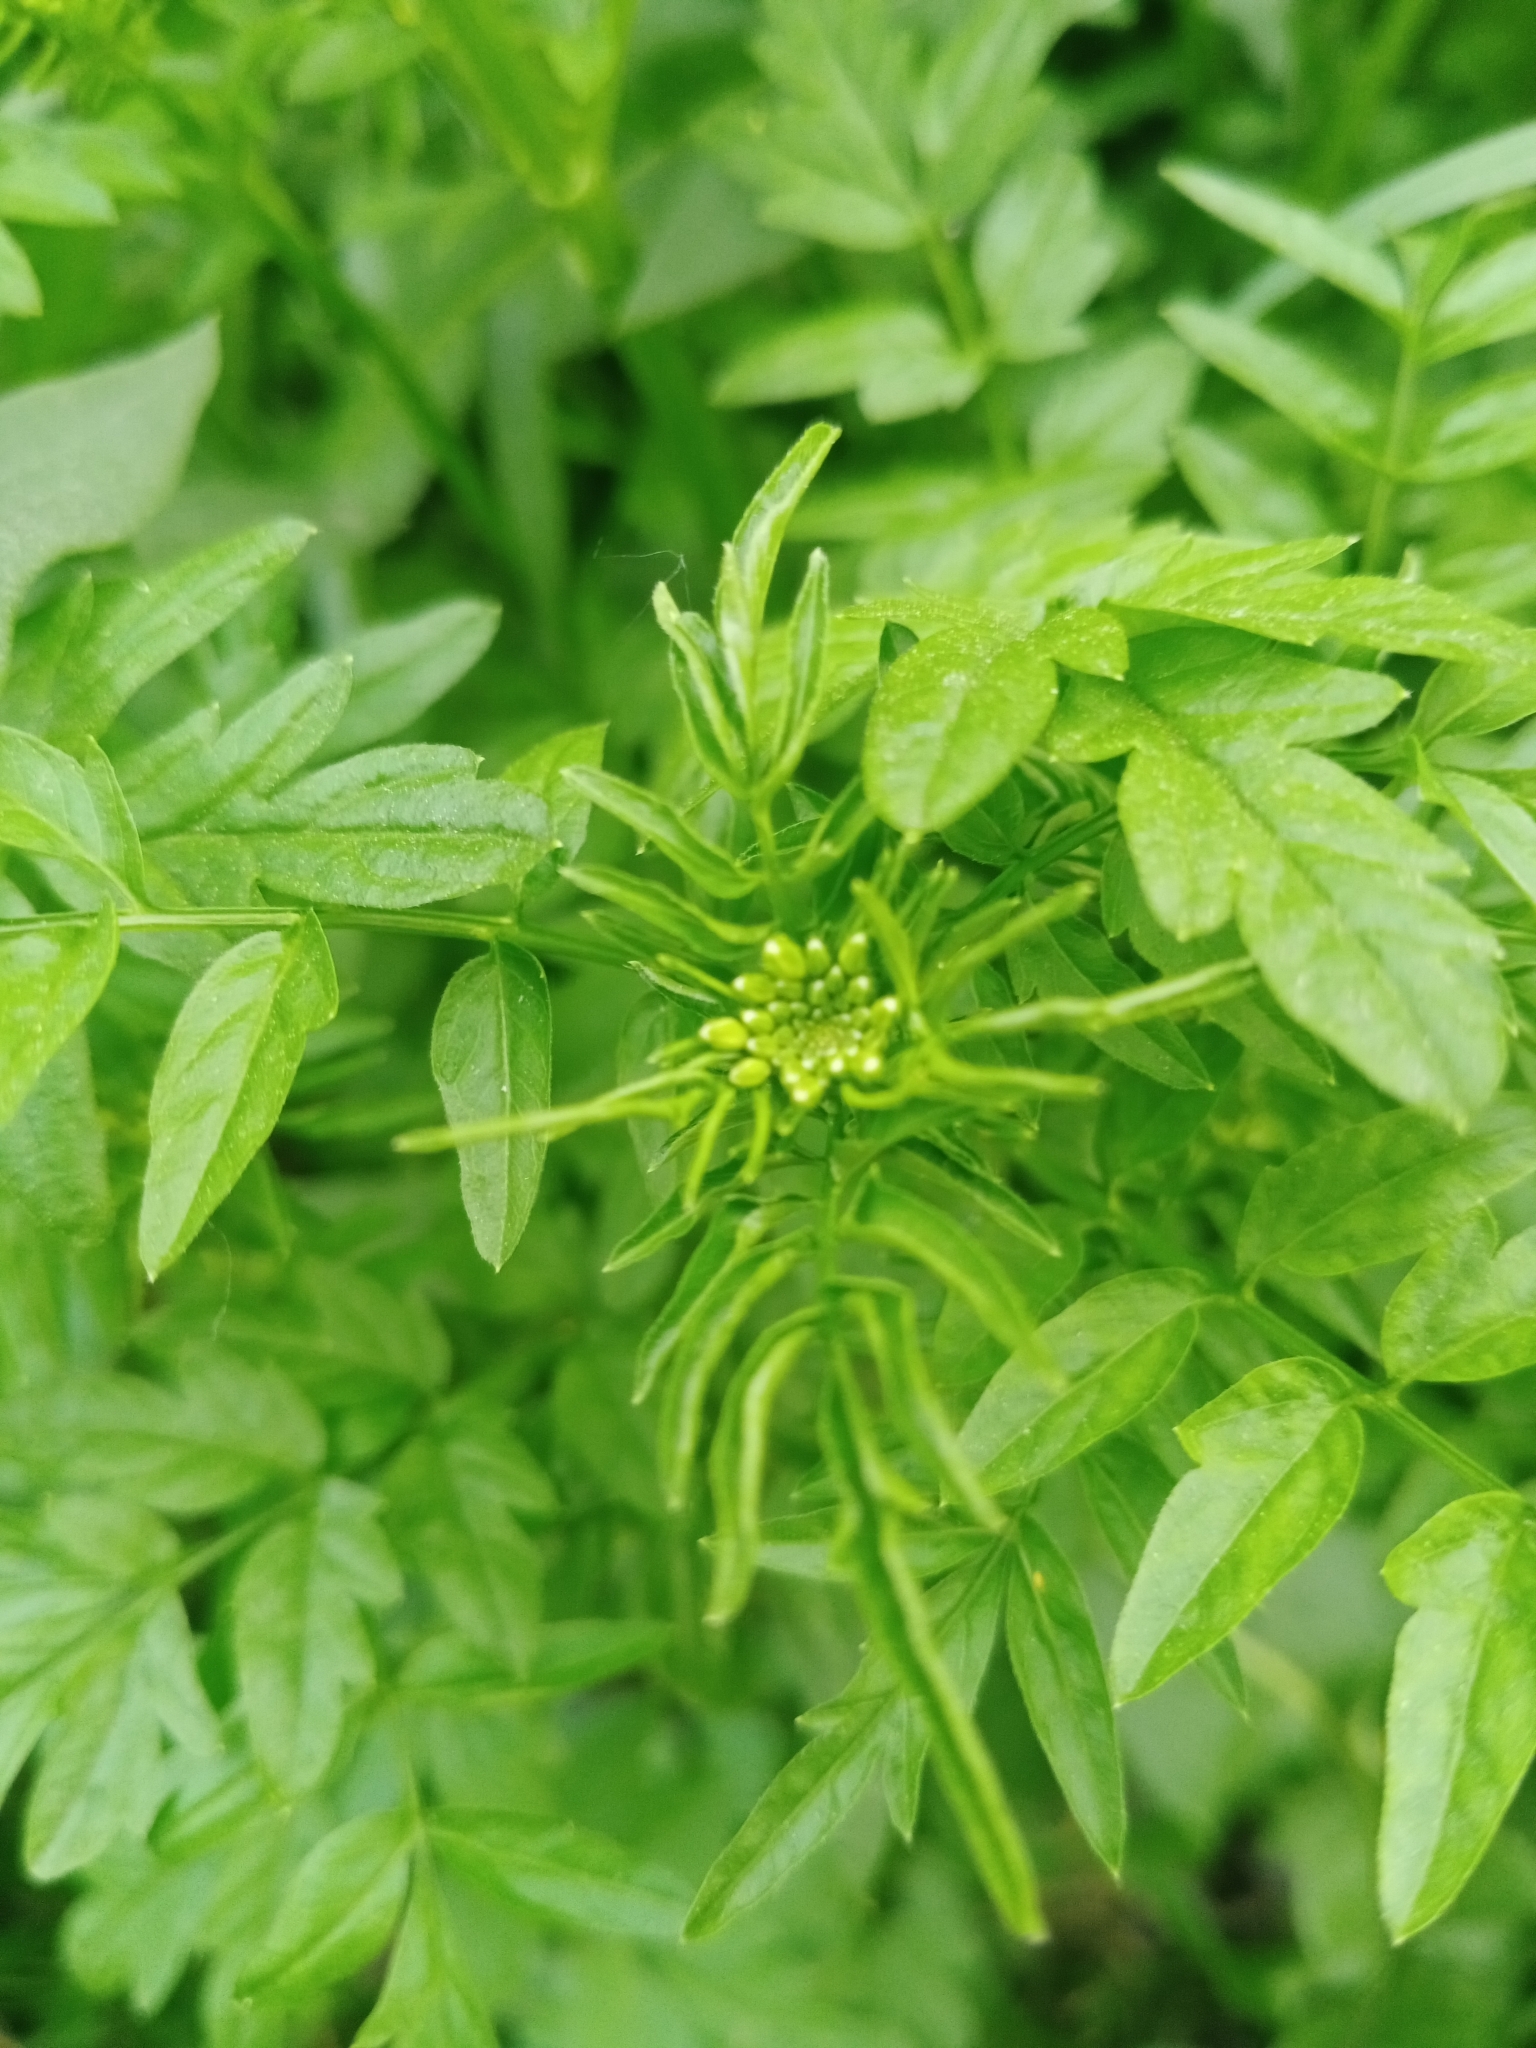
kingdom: Plantae
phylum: Tracheophyta
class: Magnoliopsida
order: Brassicales
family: Brassicaceae
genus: Cardamine
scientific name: Cardamine impatiens
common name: Narrow-leaved bitter-cress
